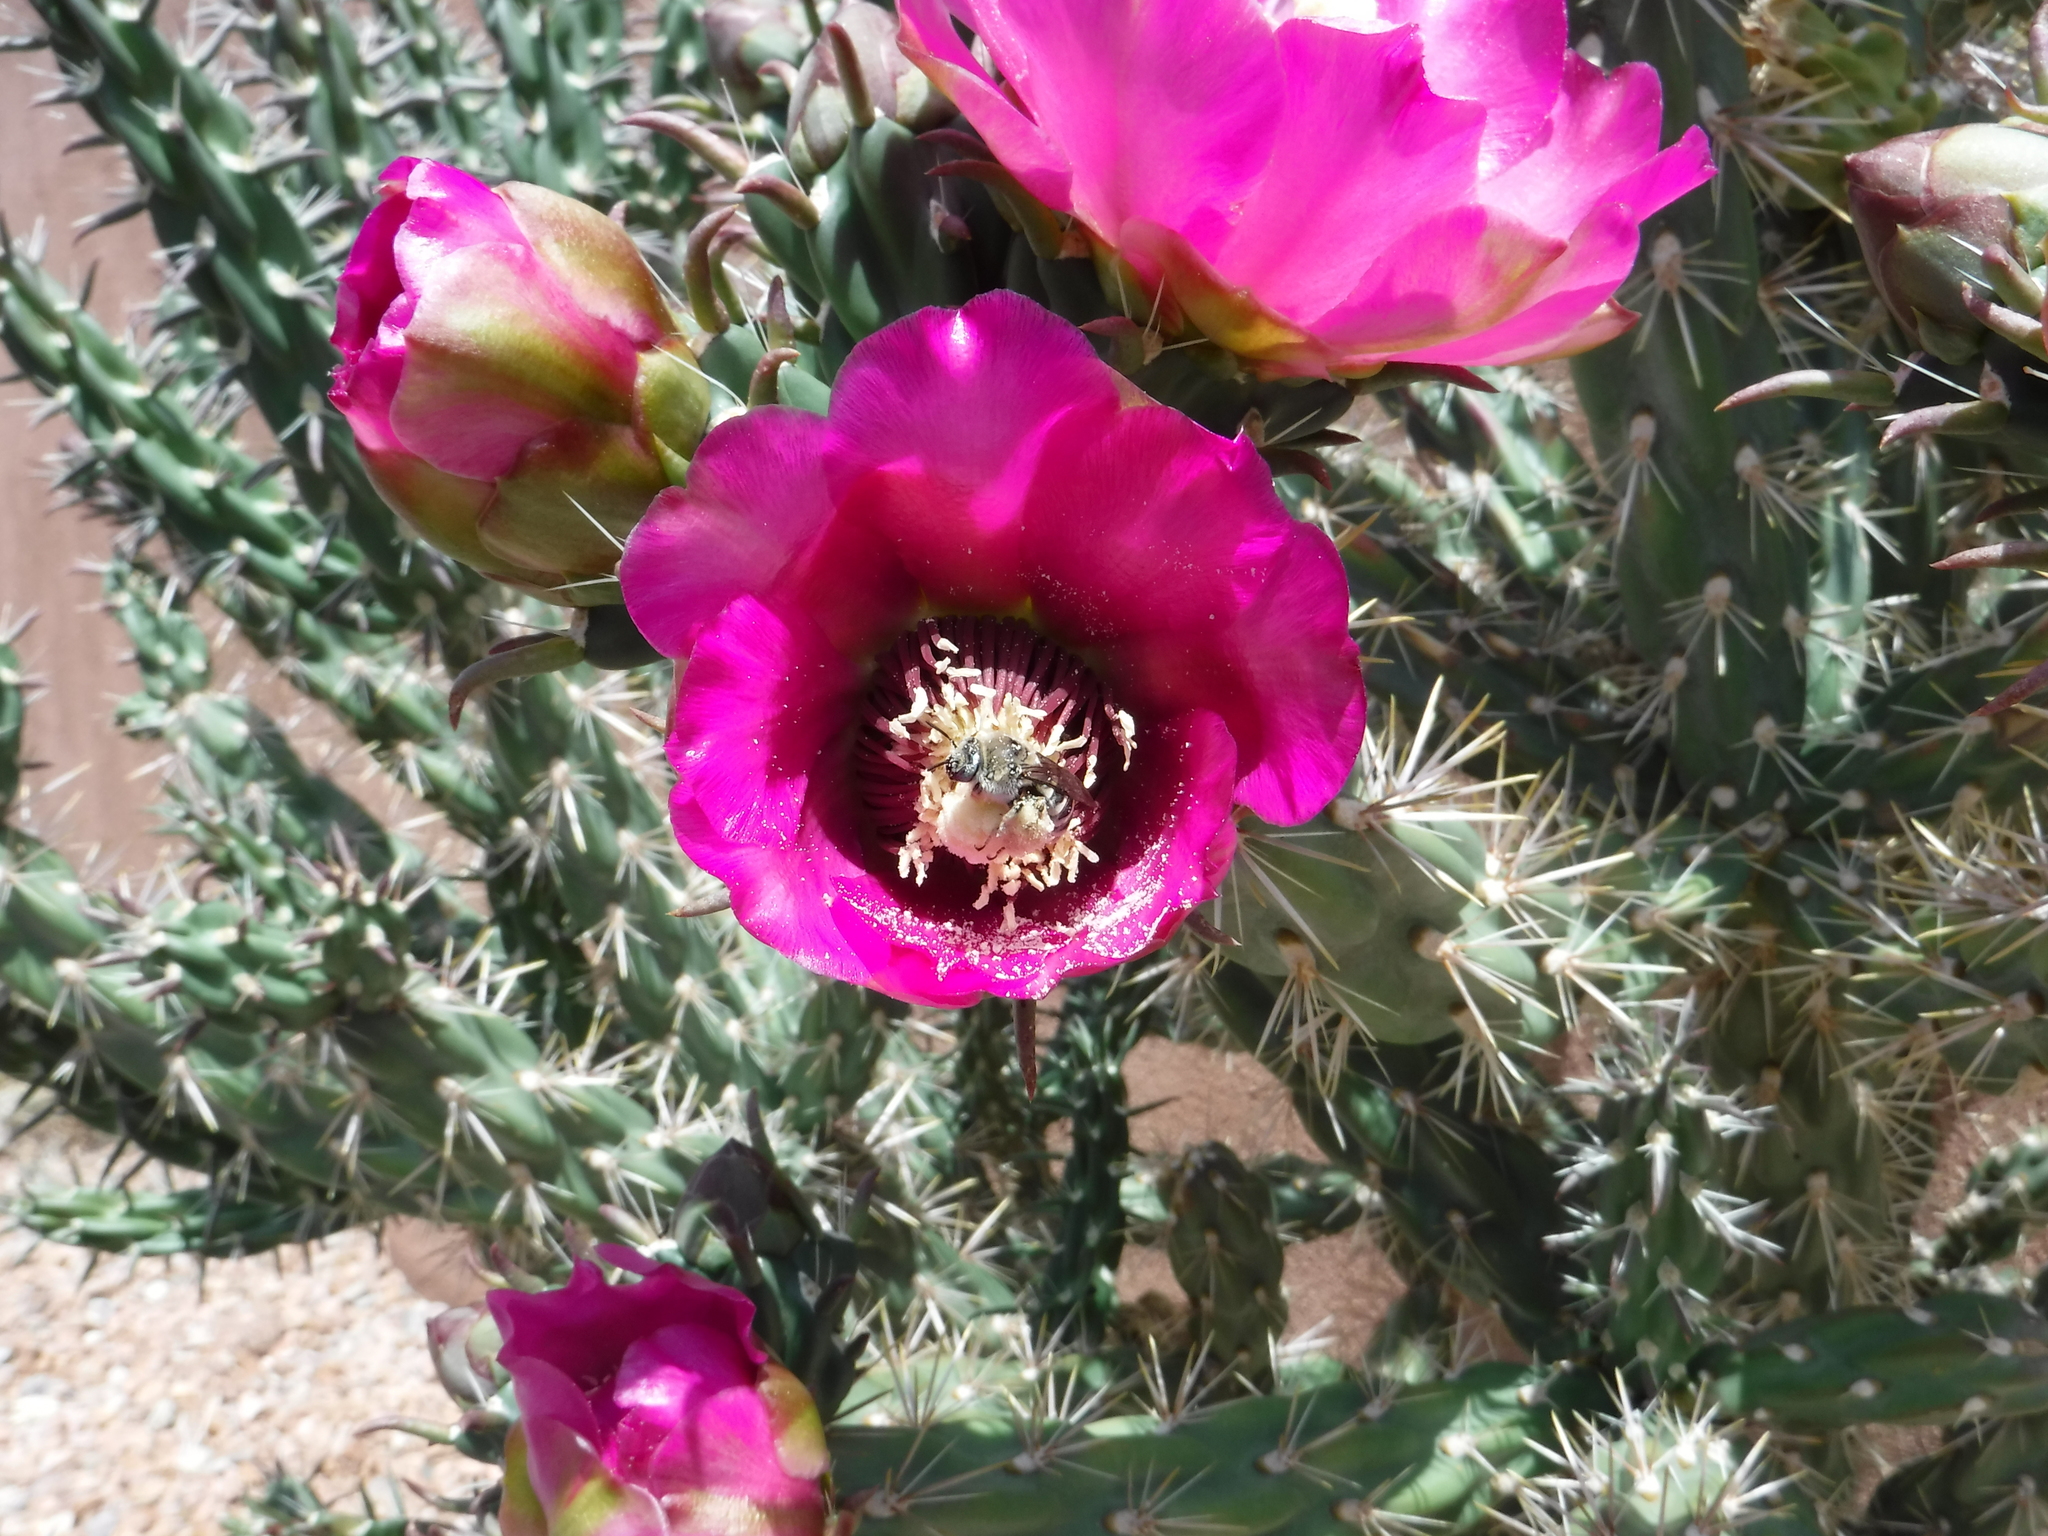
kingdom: Animalia
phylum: Arthropoda
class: Insecta
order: Hymenoptera
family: Apidae
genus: Diadasia
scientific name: Diadasia
